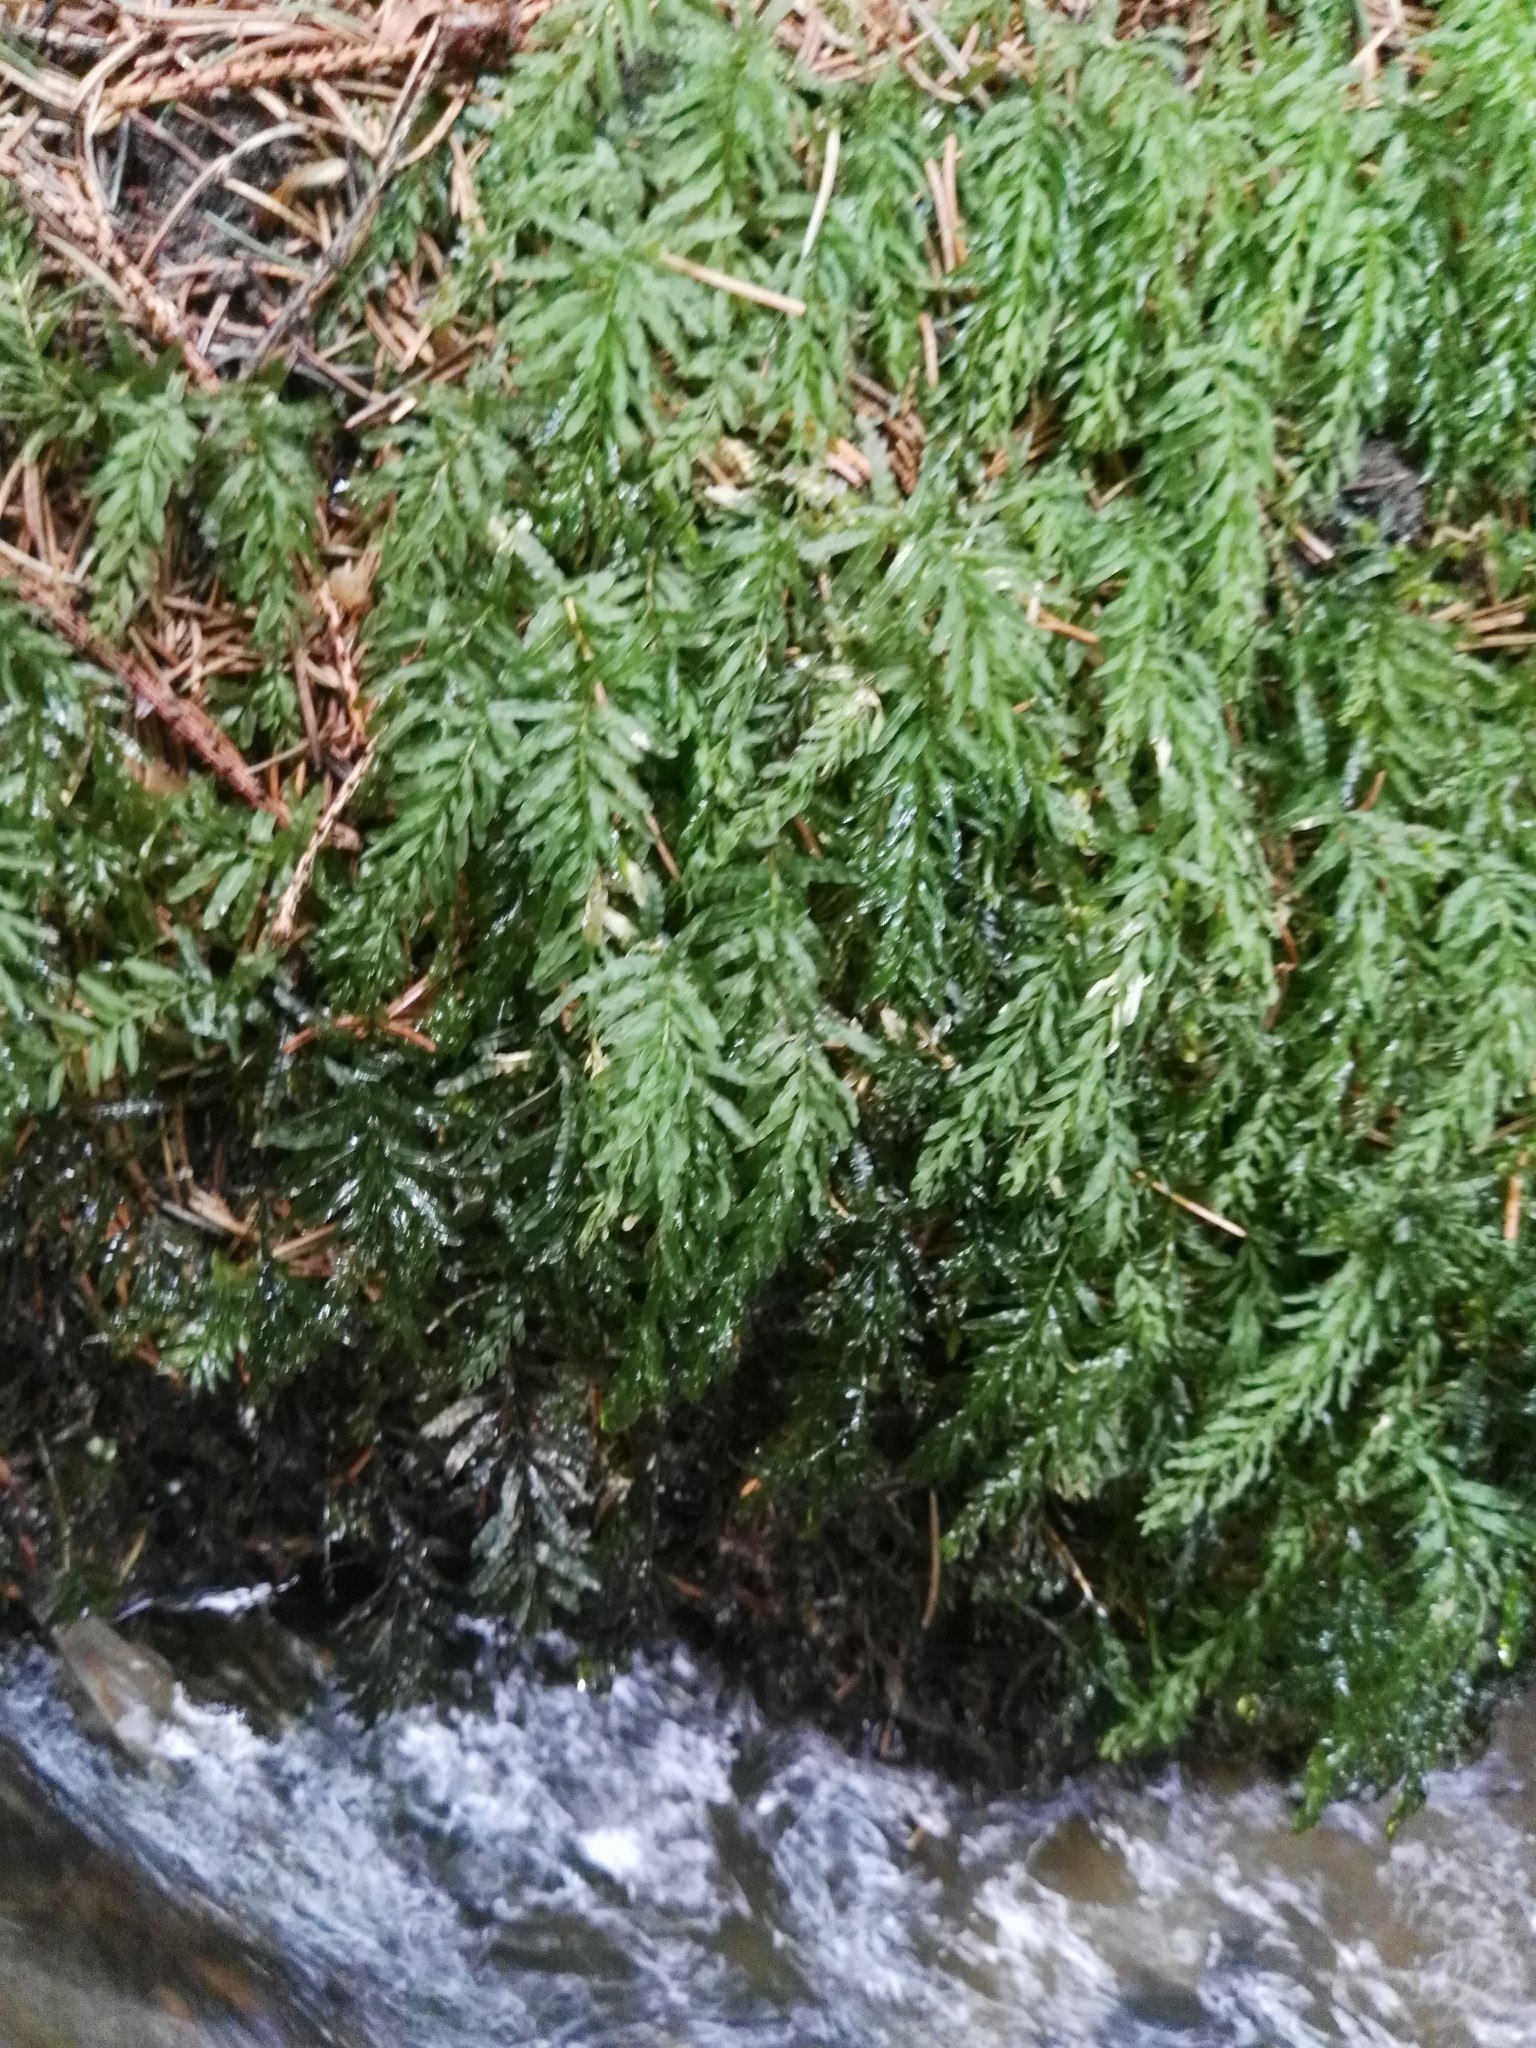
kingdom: Plantae
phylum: Bryophyta
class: Bryopsida
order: Bryales
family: Mniaceae
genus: Plagiomnium
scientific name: Plagiomnium undulatum
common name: Hart's-tongue thyme-moss
